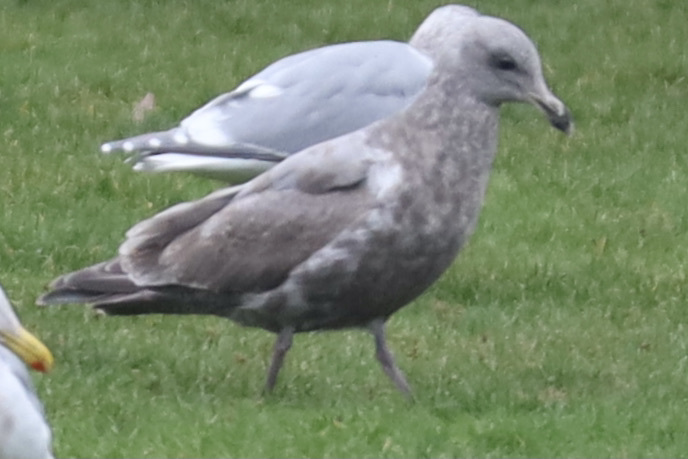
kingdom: Animalia
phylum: Chordata
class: Aves
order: Charadriiformes
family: Laridae
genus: Larus
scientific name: Larus
